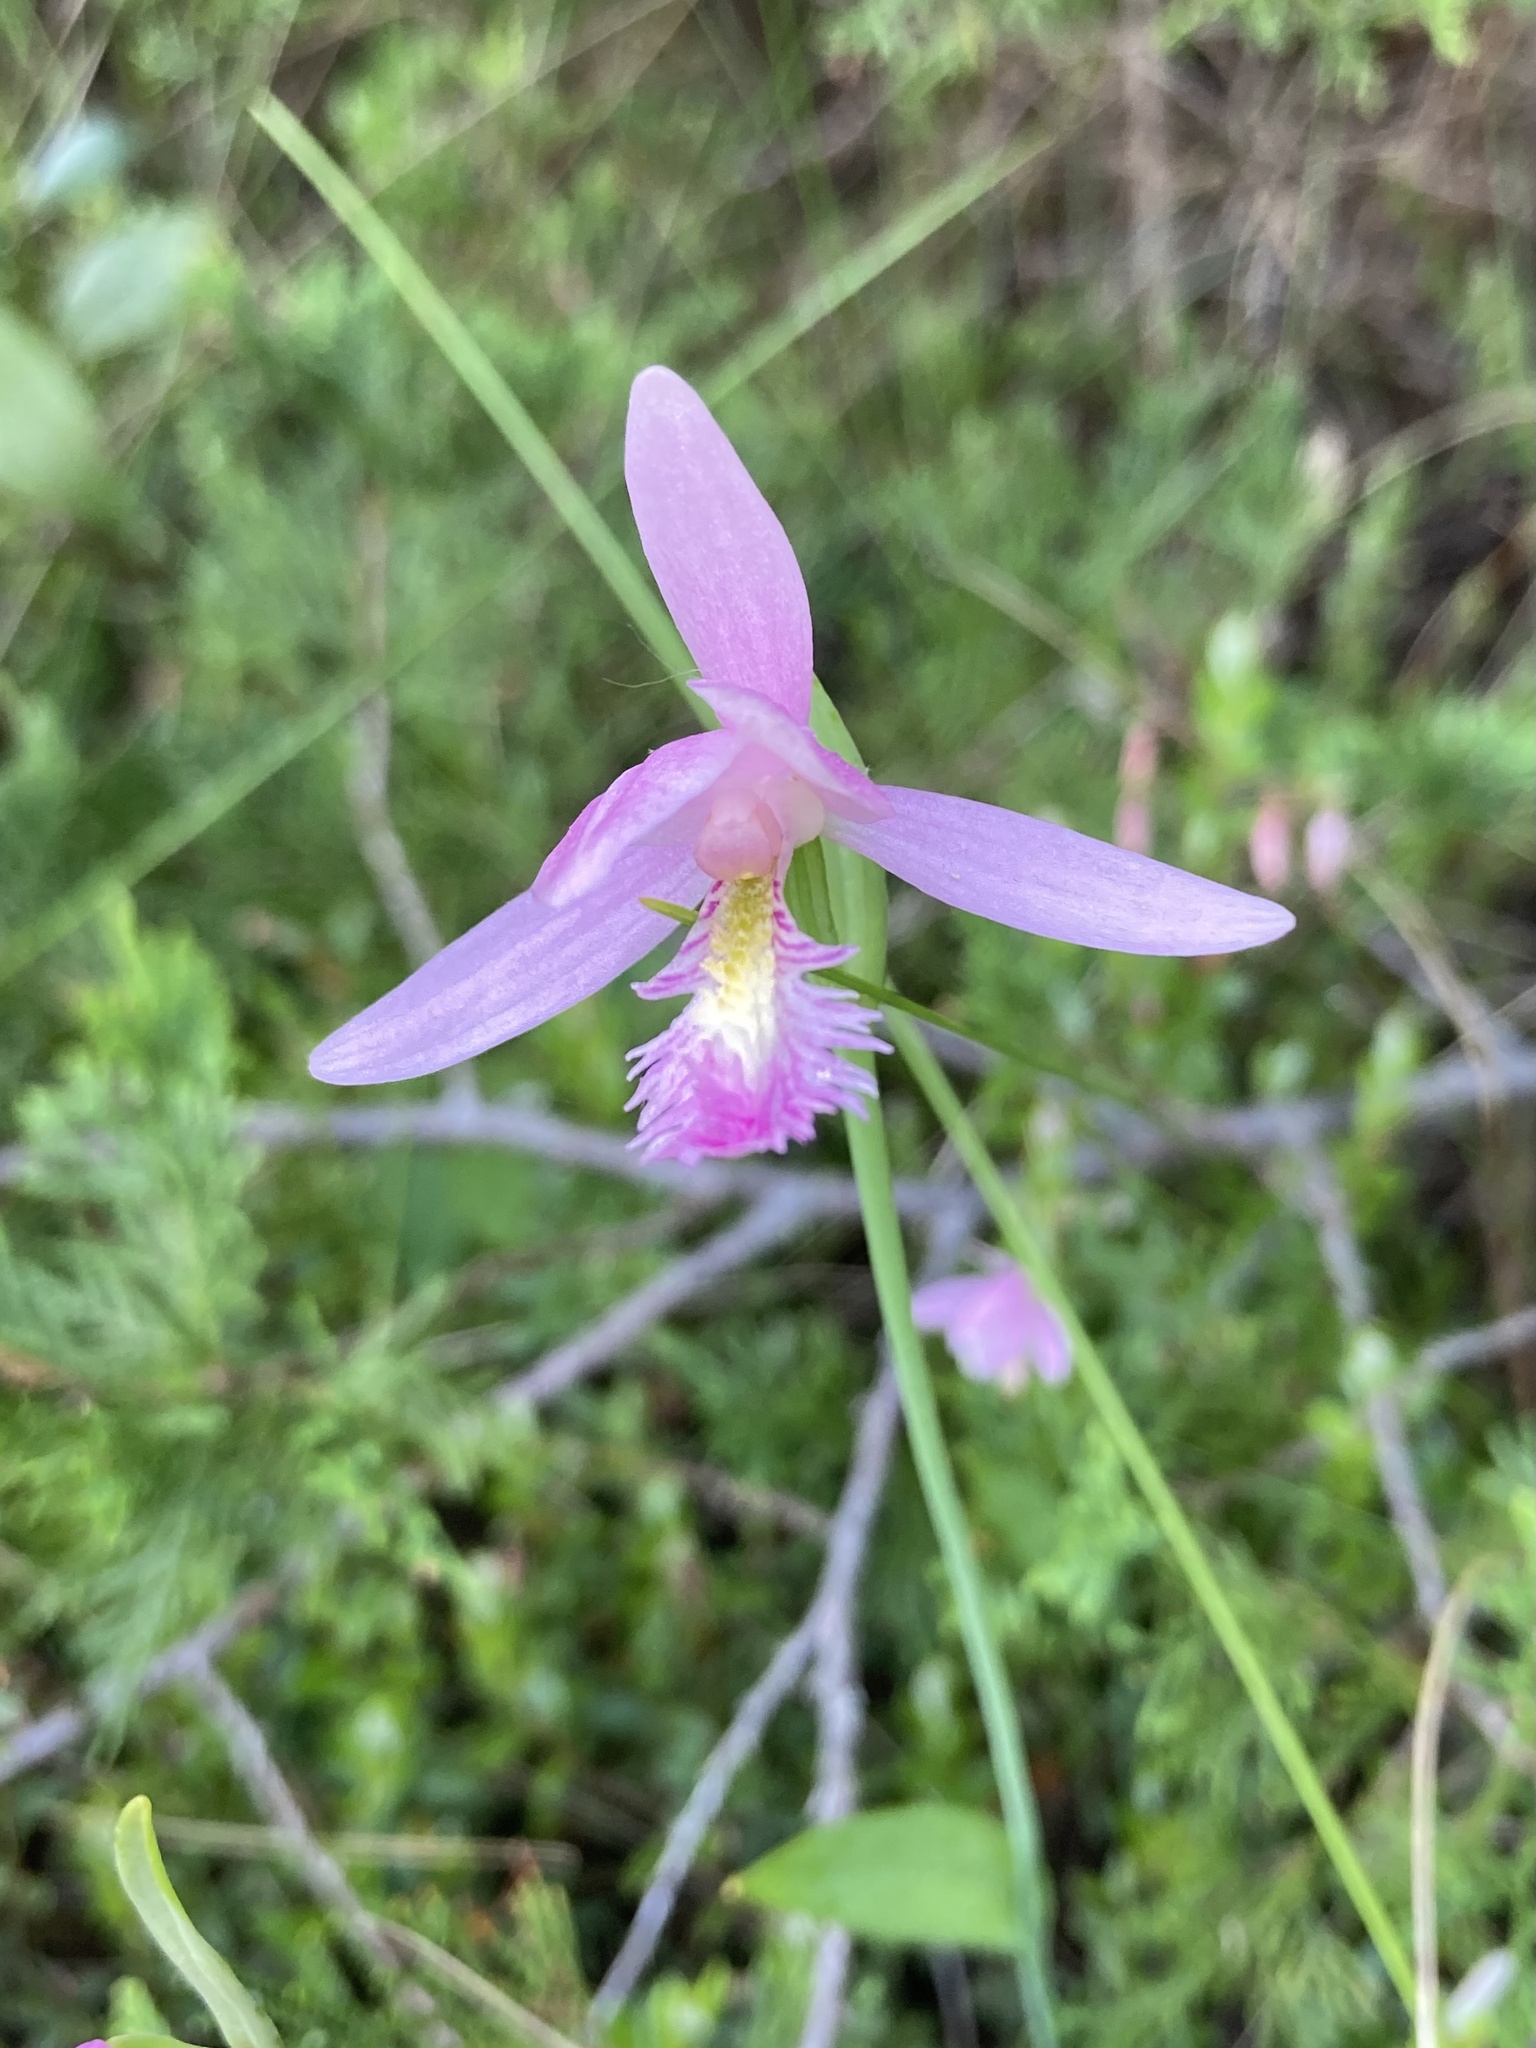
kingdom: Plantae
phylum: Tracheophyta
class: Liliopsida
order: Asparagales
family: Orchidaceae
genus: Pogonia
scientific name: Pogonia ophioglossoides
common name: Rose pogonia
